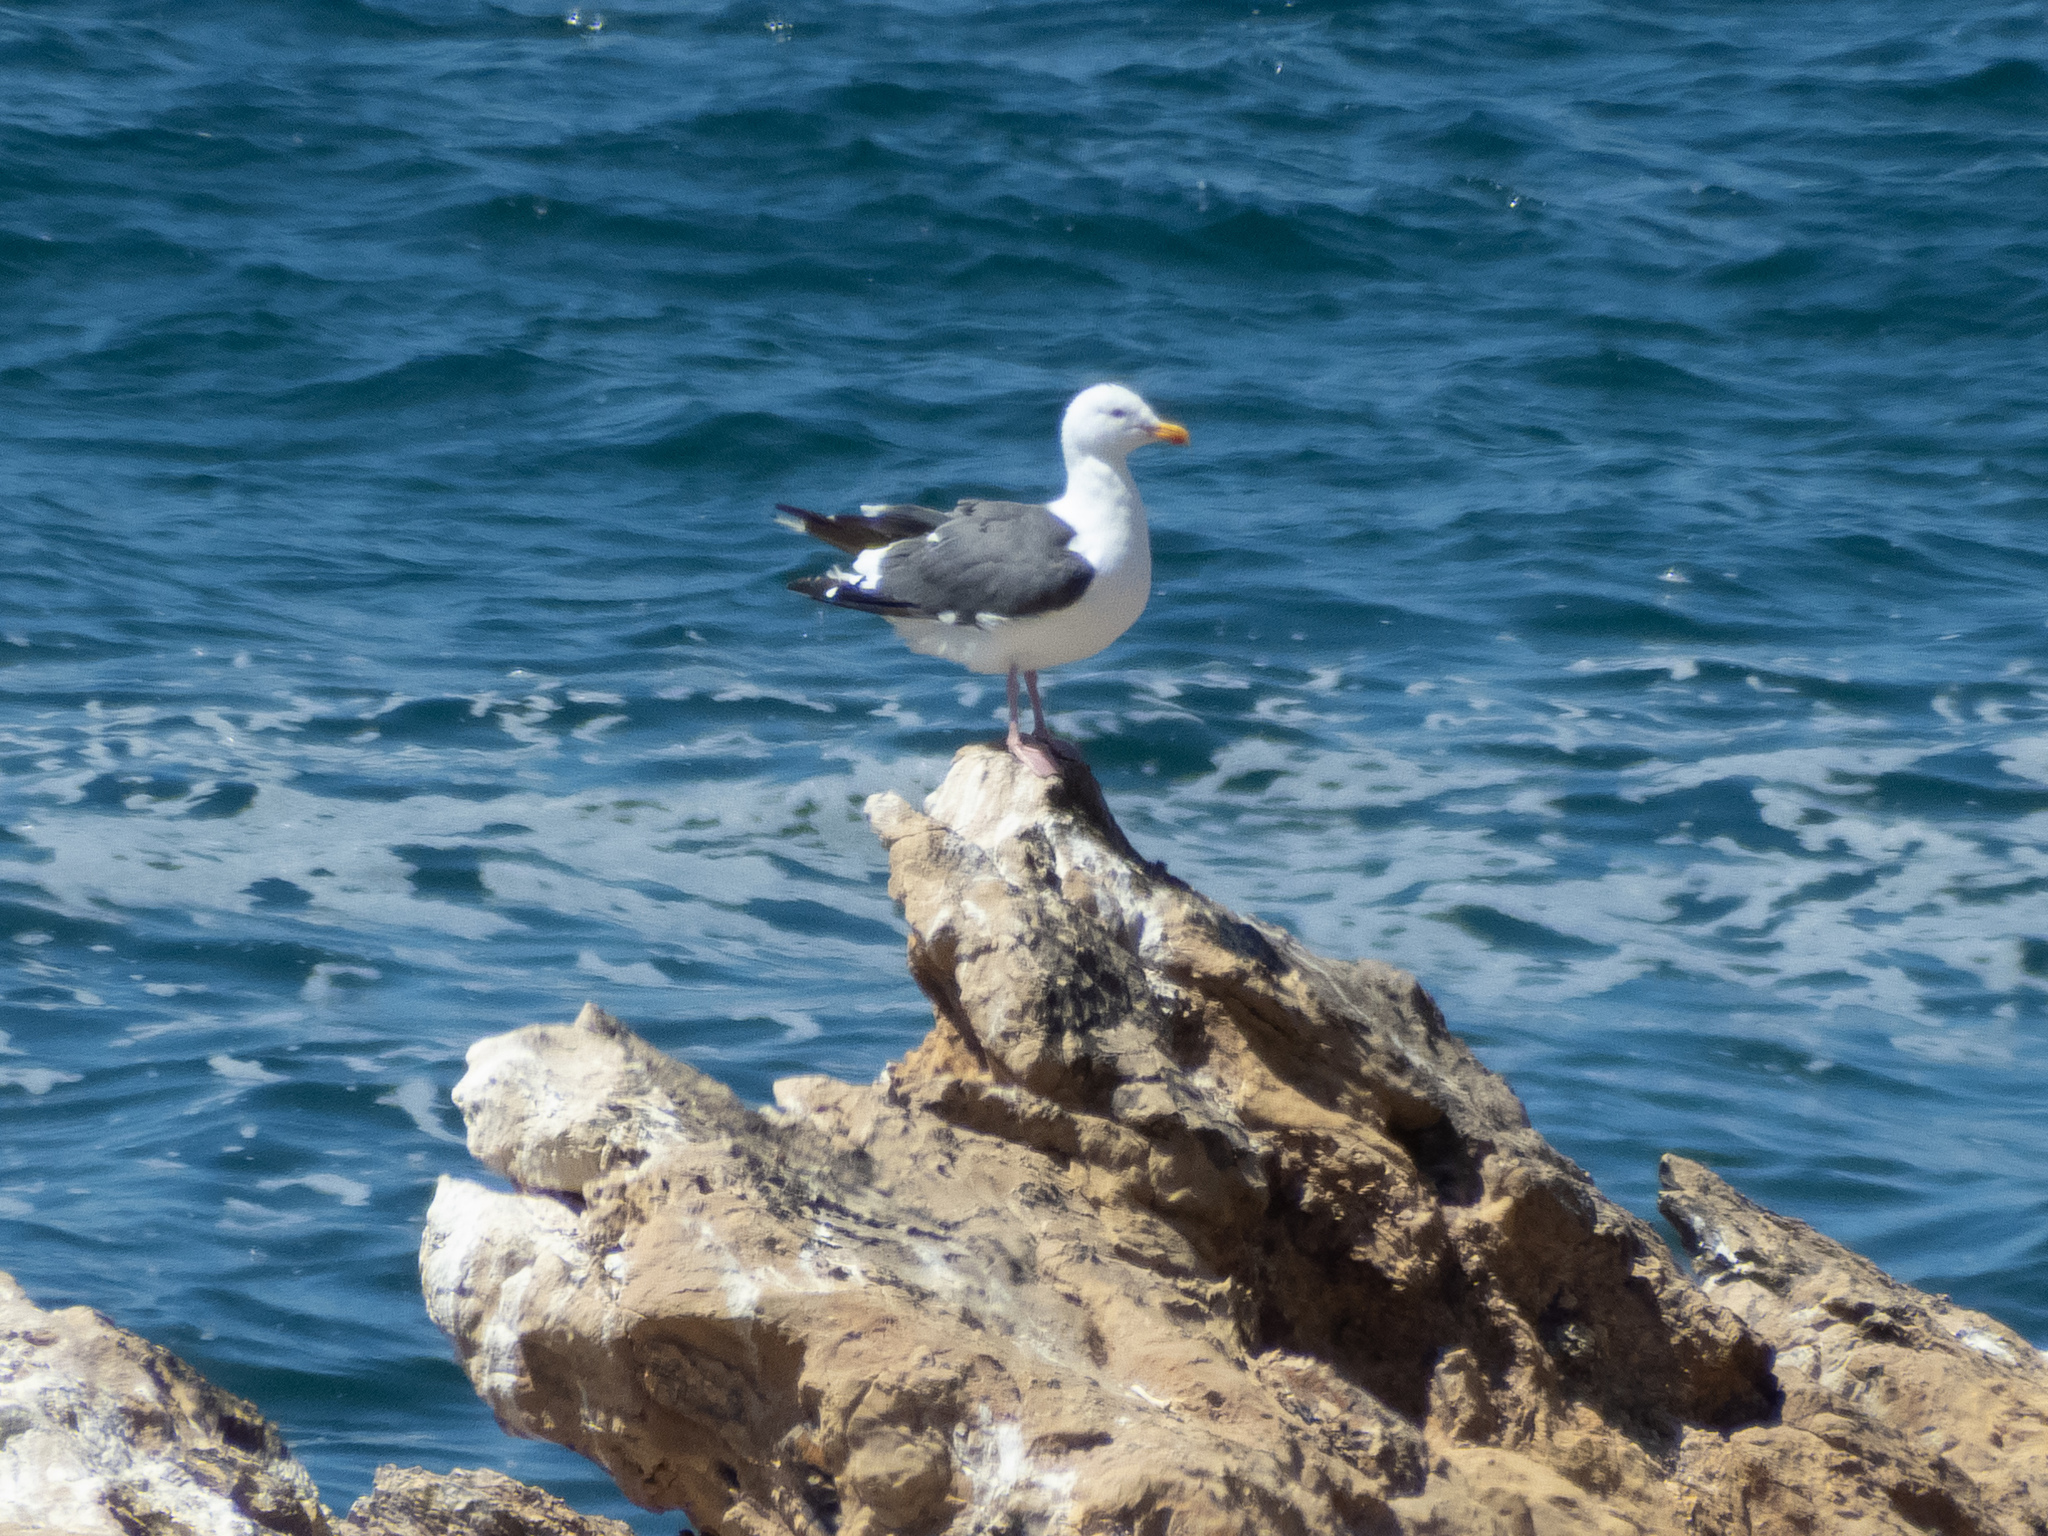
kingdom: Animalia
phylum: Chordata
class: Aves
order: Charadriiformes
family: Laridae
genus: Larus
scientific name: Larus occidentalis
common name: Western gull
